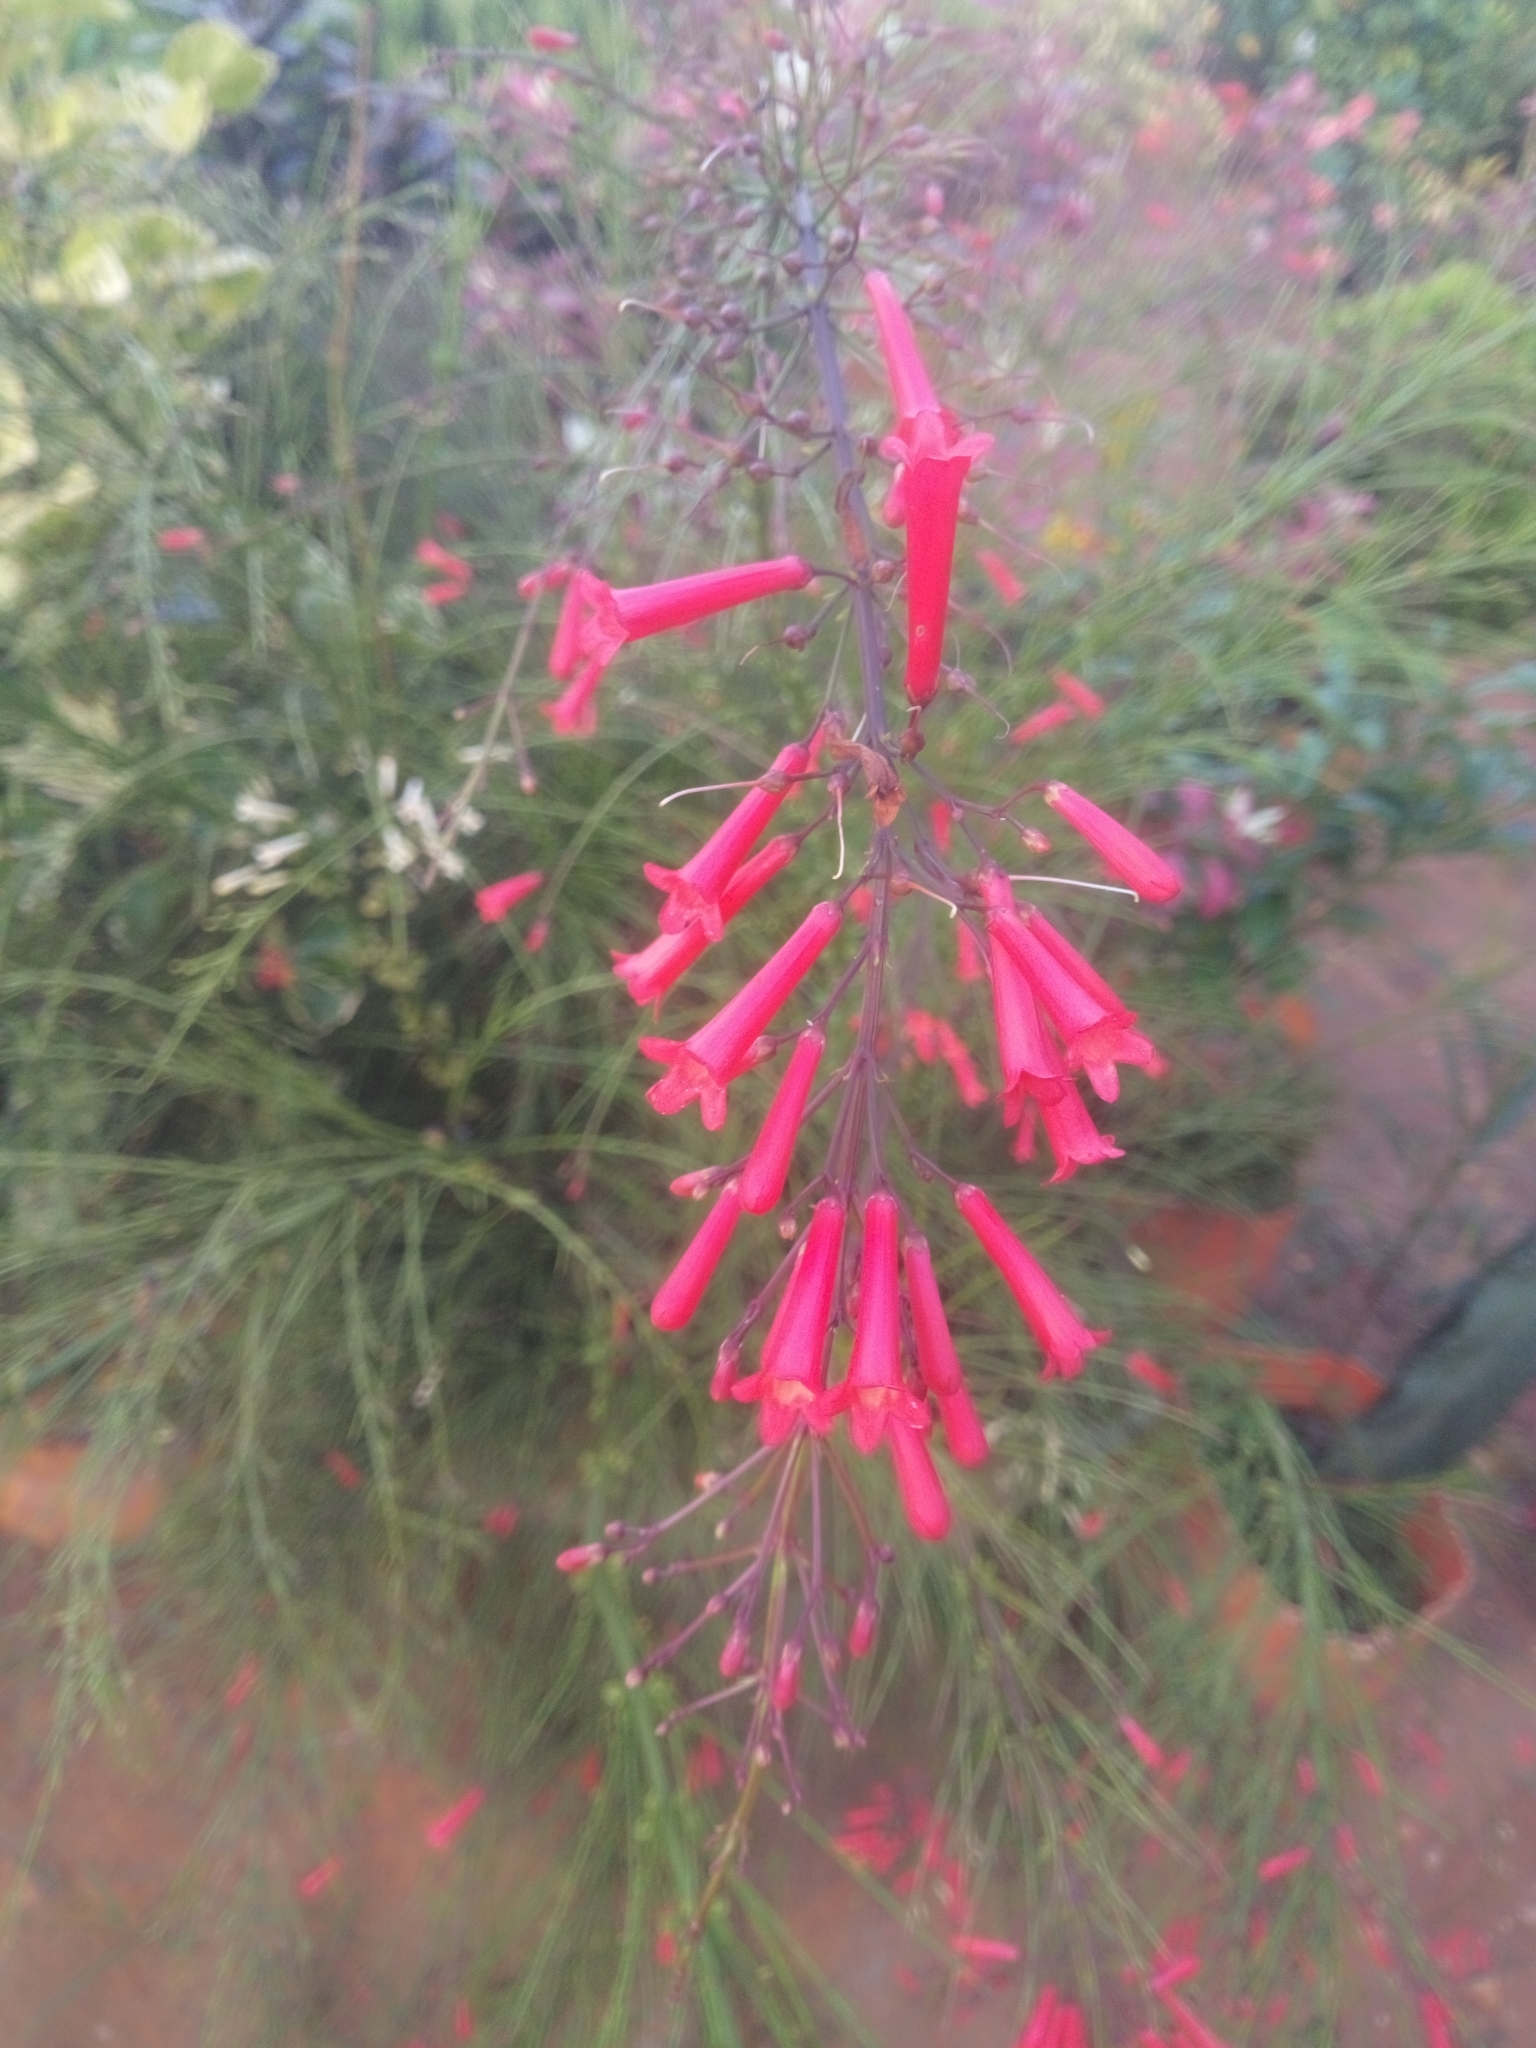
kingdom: Plantae
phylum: Tracheophyta
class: Magnoliopsida
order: Lamiales
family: Plantaginaceae
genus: Russelia
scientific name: Russelia equisetiformis
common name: Fountainbush
